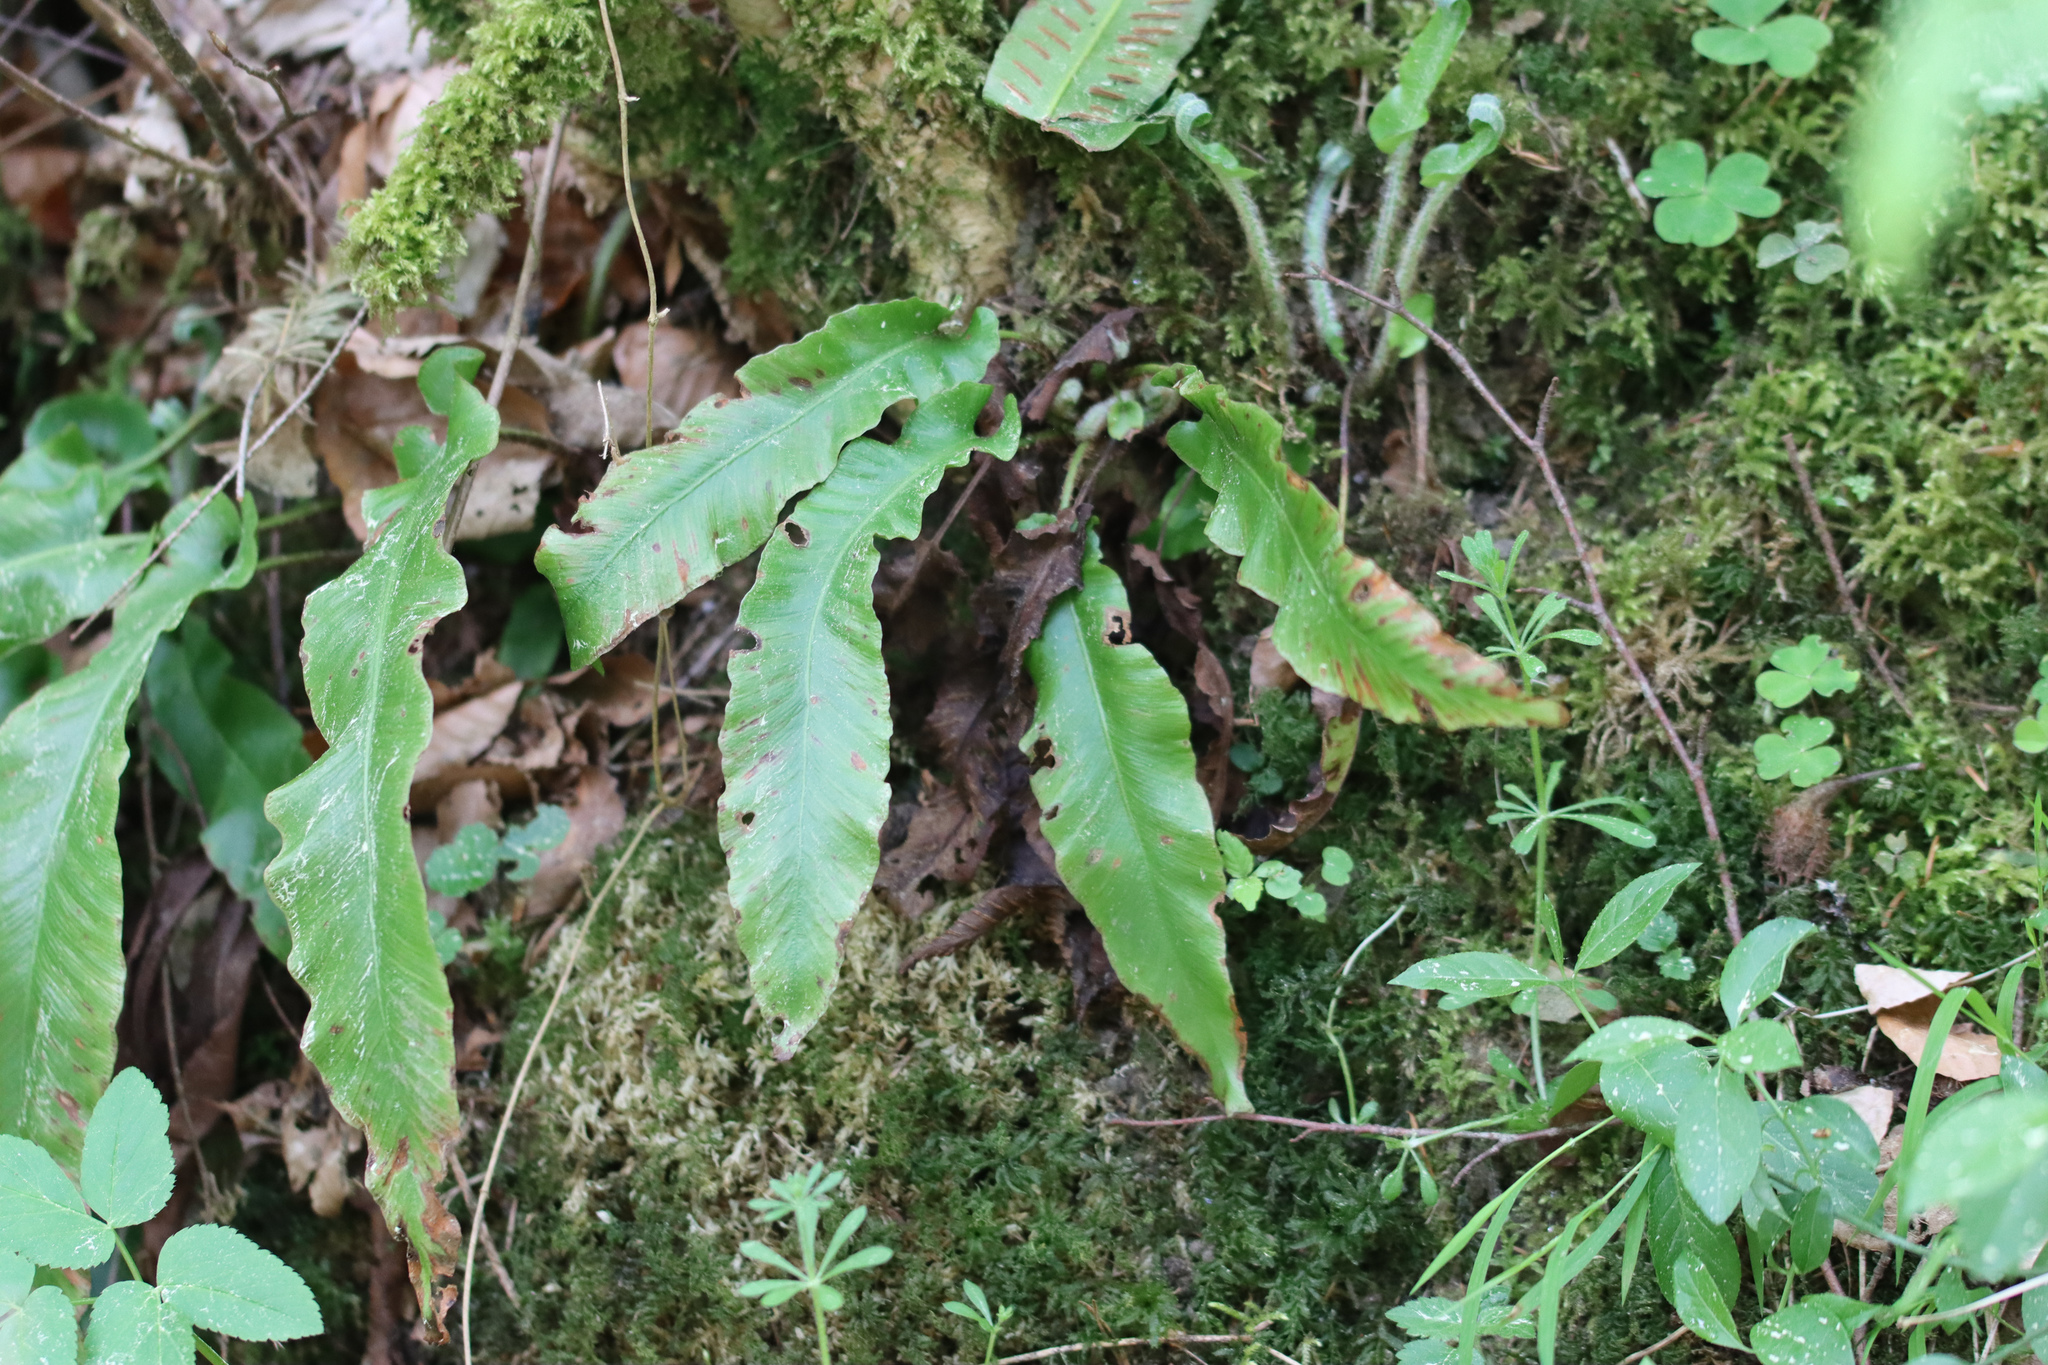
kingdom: Plantae
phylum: Tracheophyta
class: Polypodiopsida
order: Polypodiales
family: Aspleniaceae
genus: Asplenium
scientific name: Asplenium scolopendrium
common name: Hart's-tongue fern
